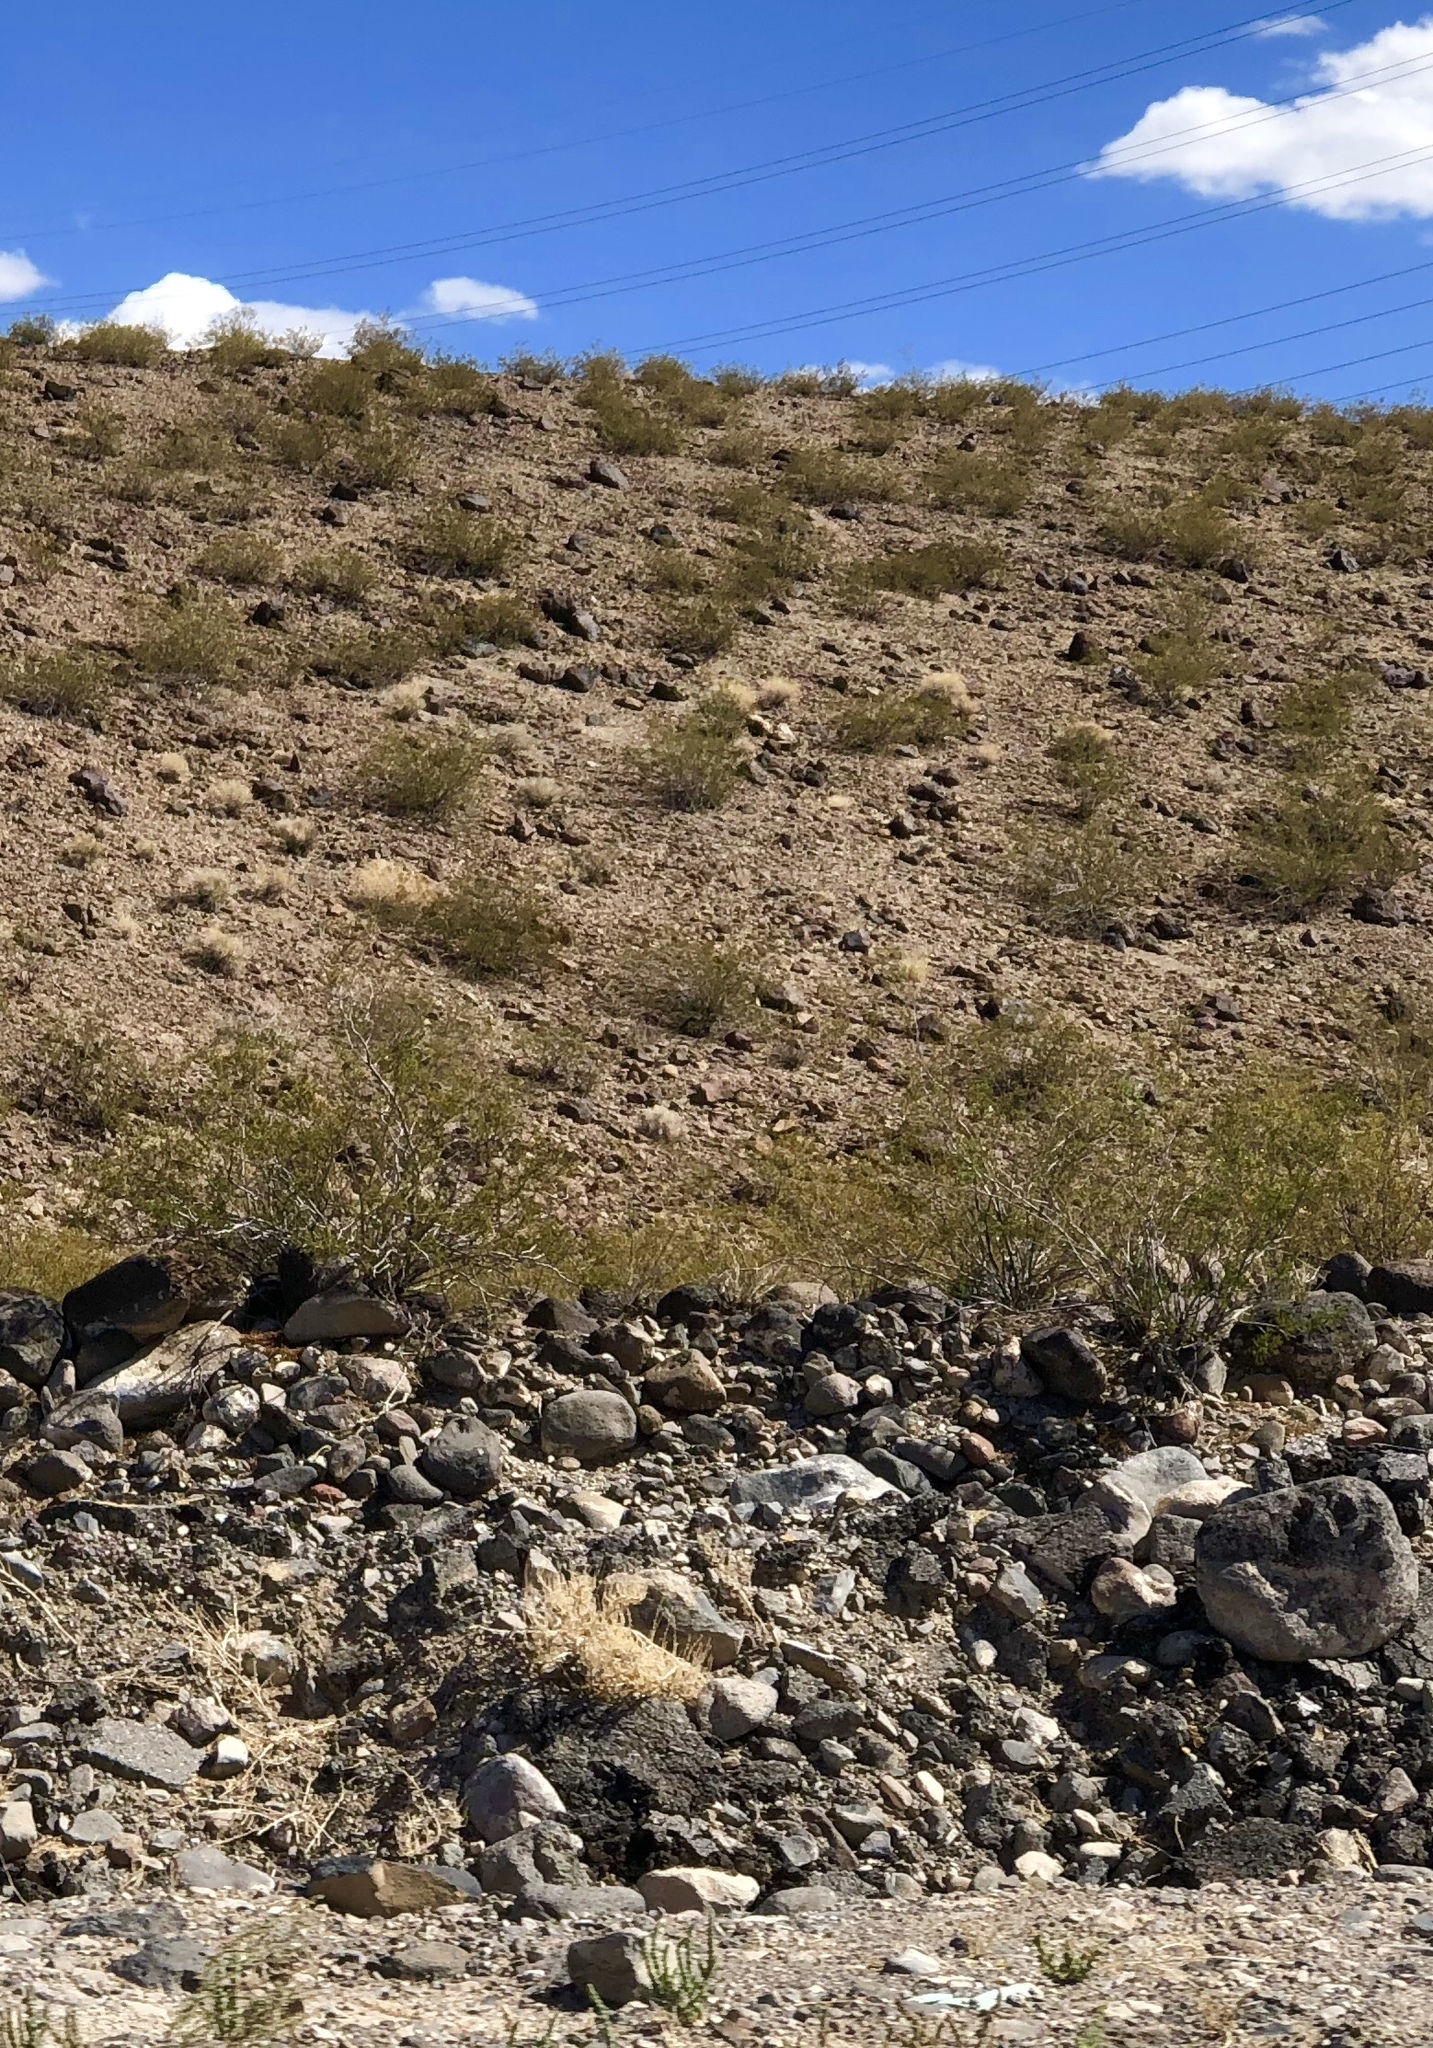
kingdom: Plantae
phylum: Tracheophyta
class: Magnoliopsida
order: Zygophyllales
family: Zygophyllaceae
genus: Larrea
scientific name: Larrea tridentata
